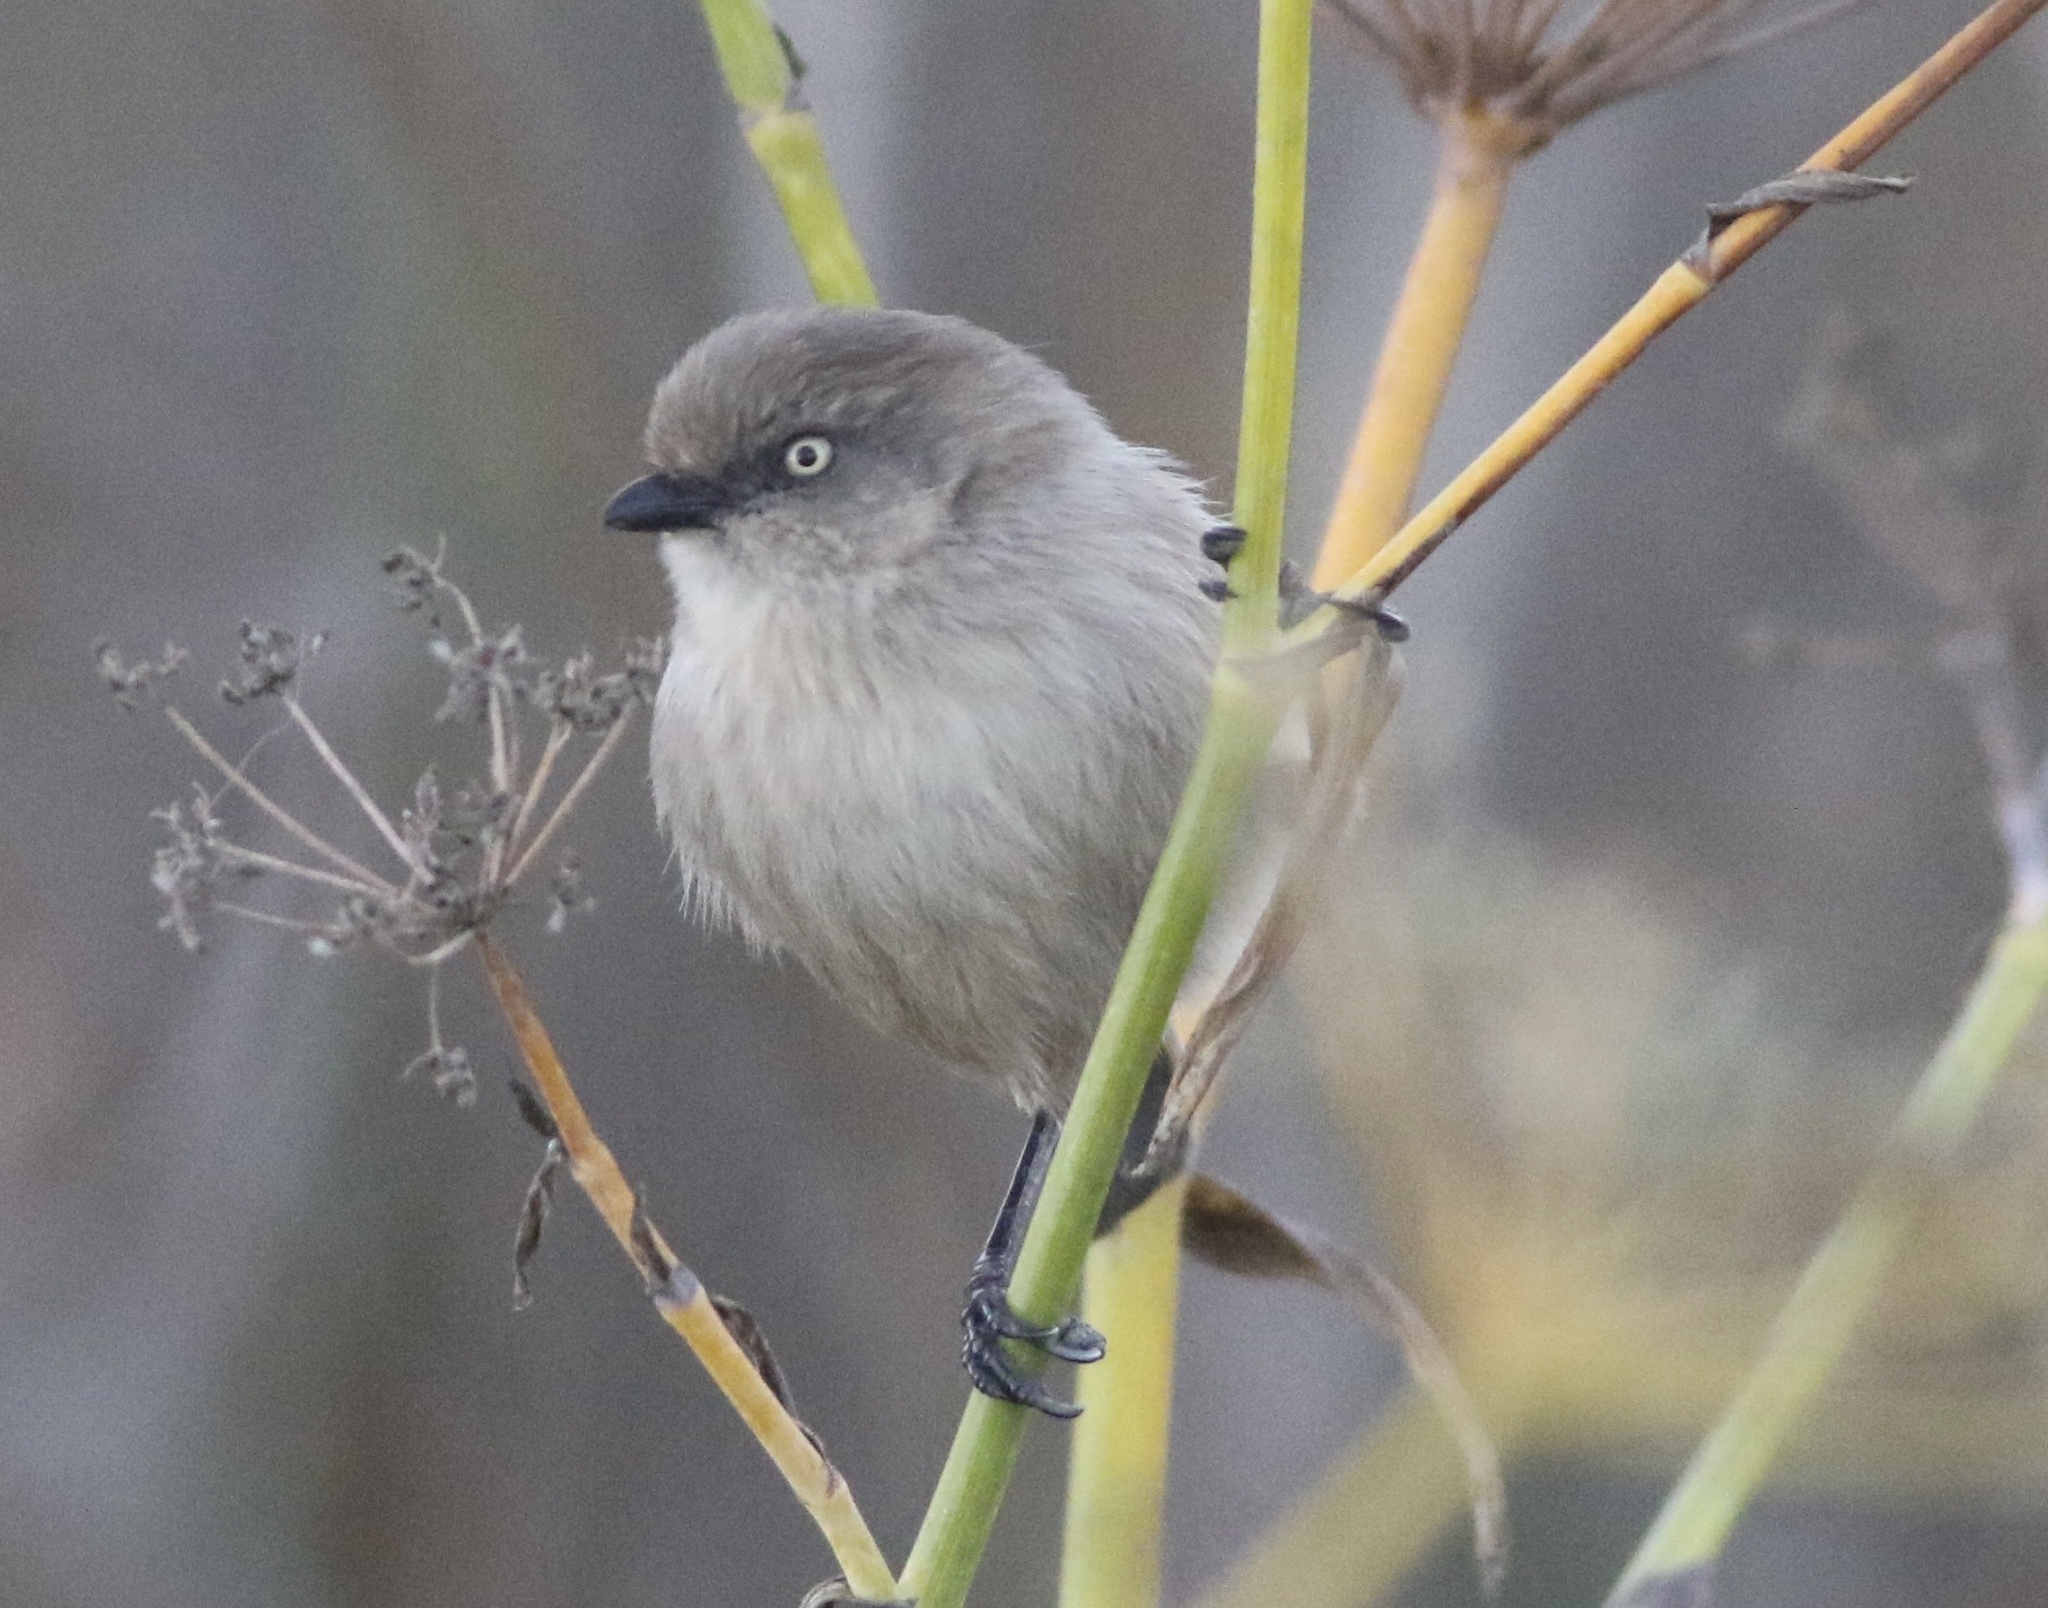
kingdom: Animalia
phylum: Chordata
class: Aves
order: Passeriformes
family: Aegithalidae
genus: Psaltriparus
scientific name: Psaltriparus minimus
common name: American bushtit
